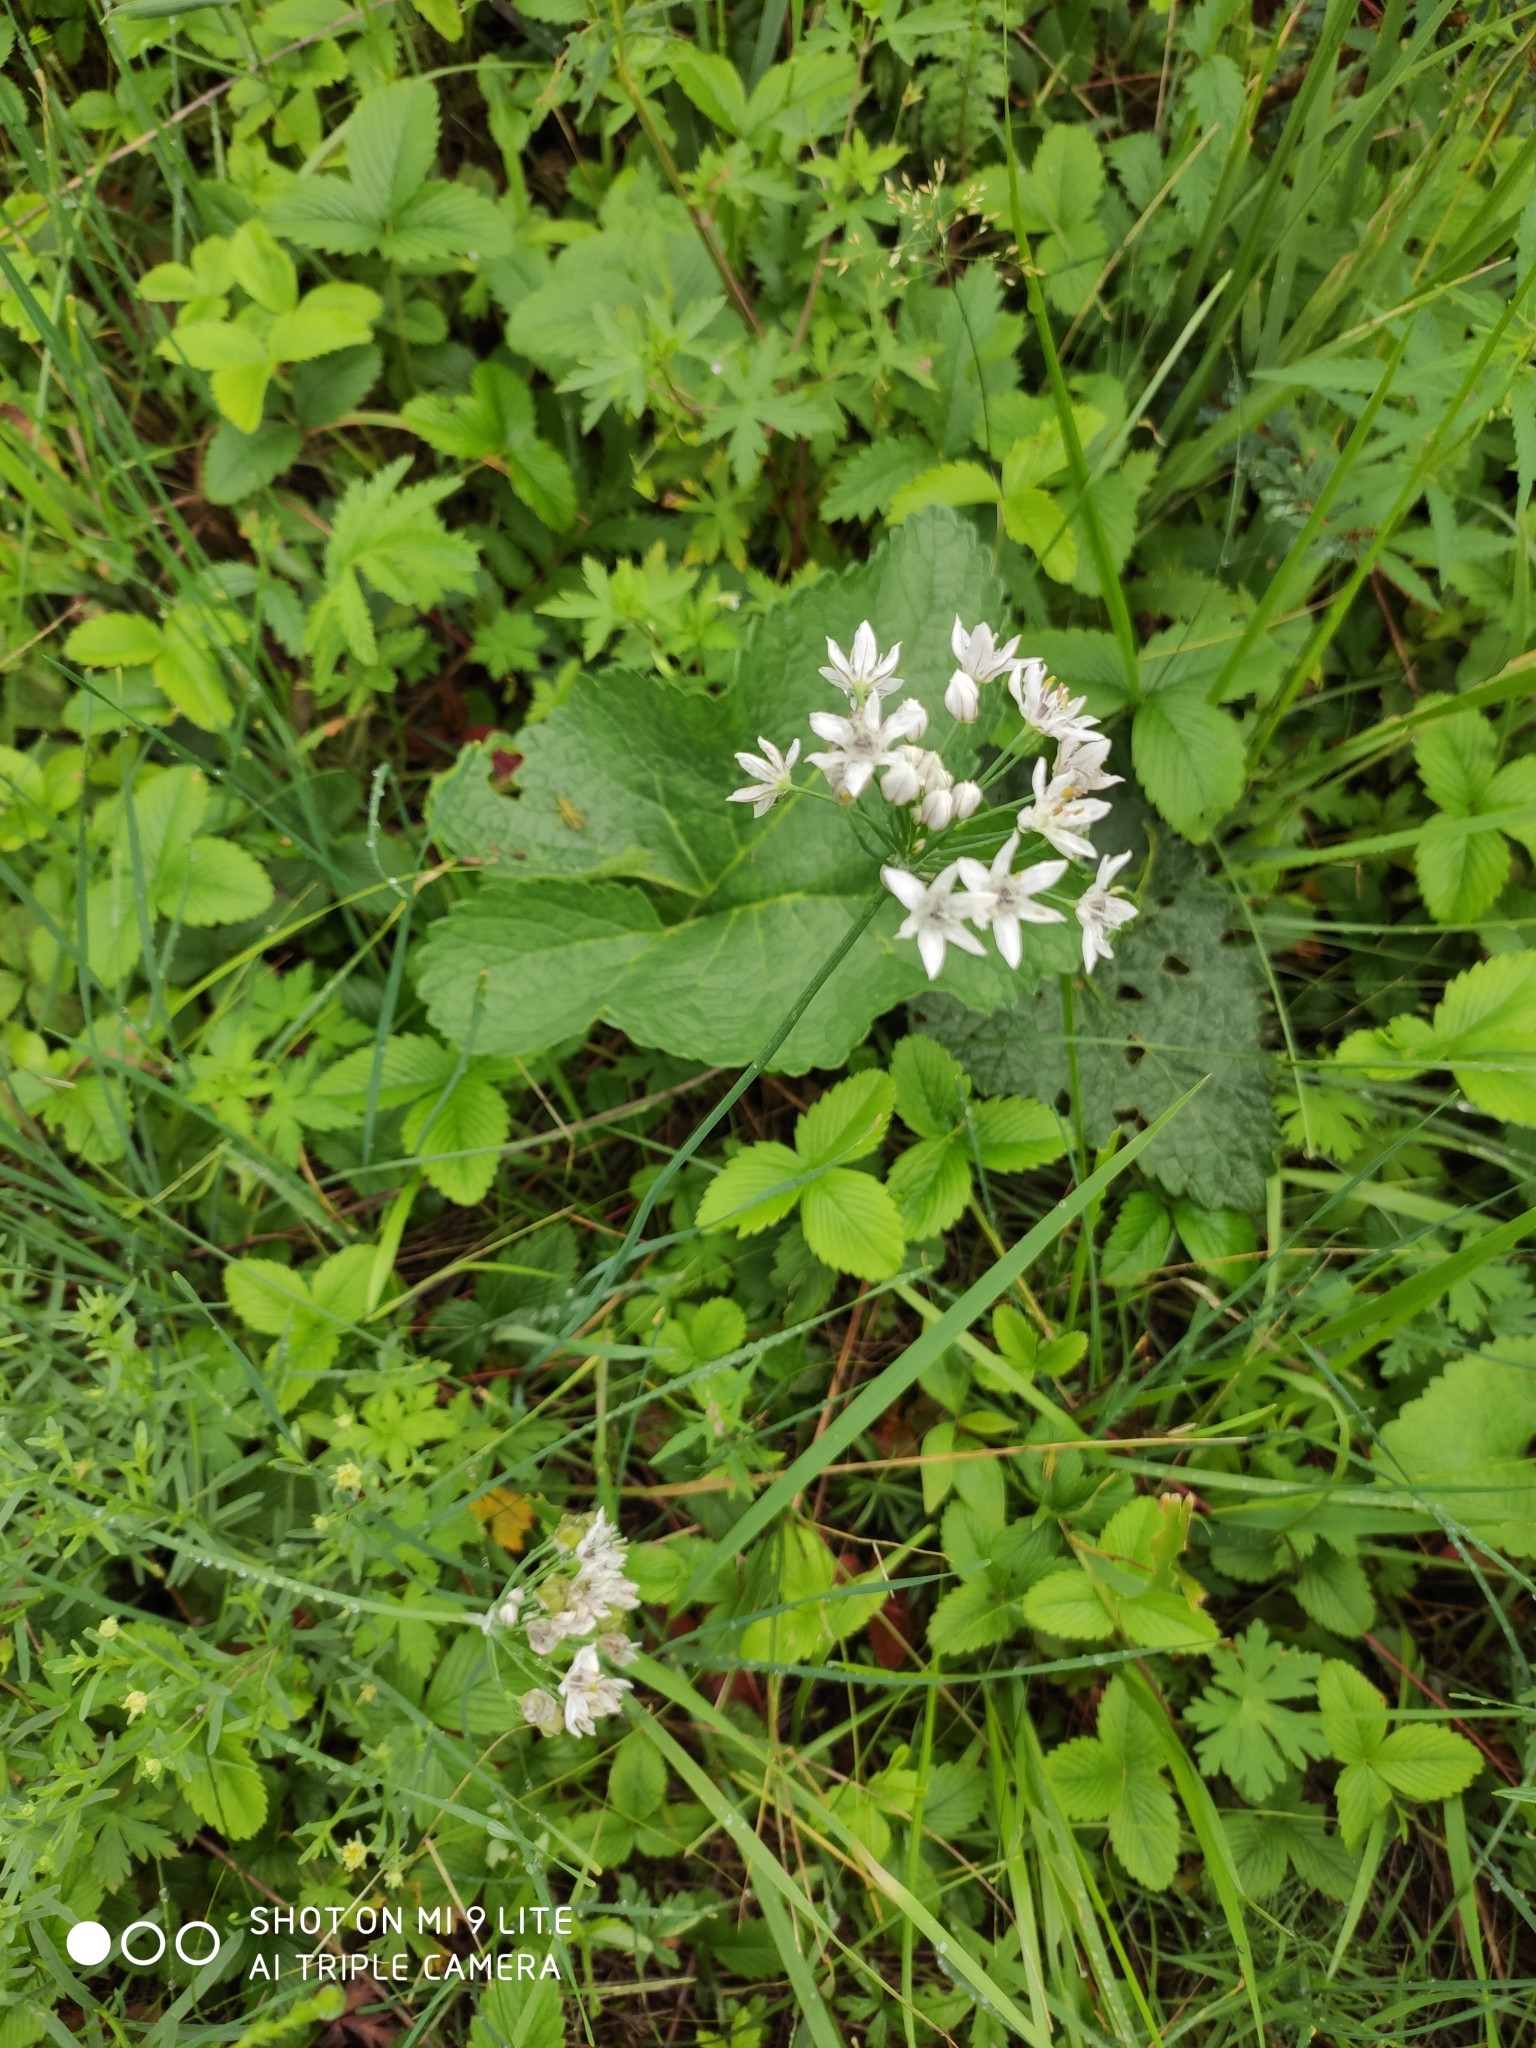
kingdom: Plantae
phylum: Tracheophyta
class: Liliopsida
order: Asparagales
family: Amaryllidaceae
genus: Allium
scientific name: Allium ramosum
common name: Fragrant garlic
